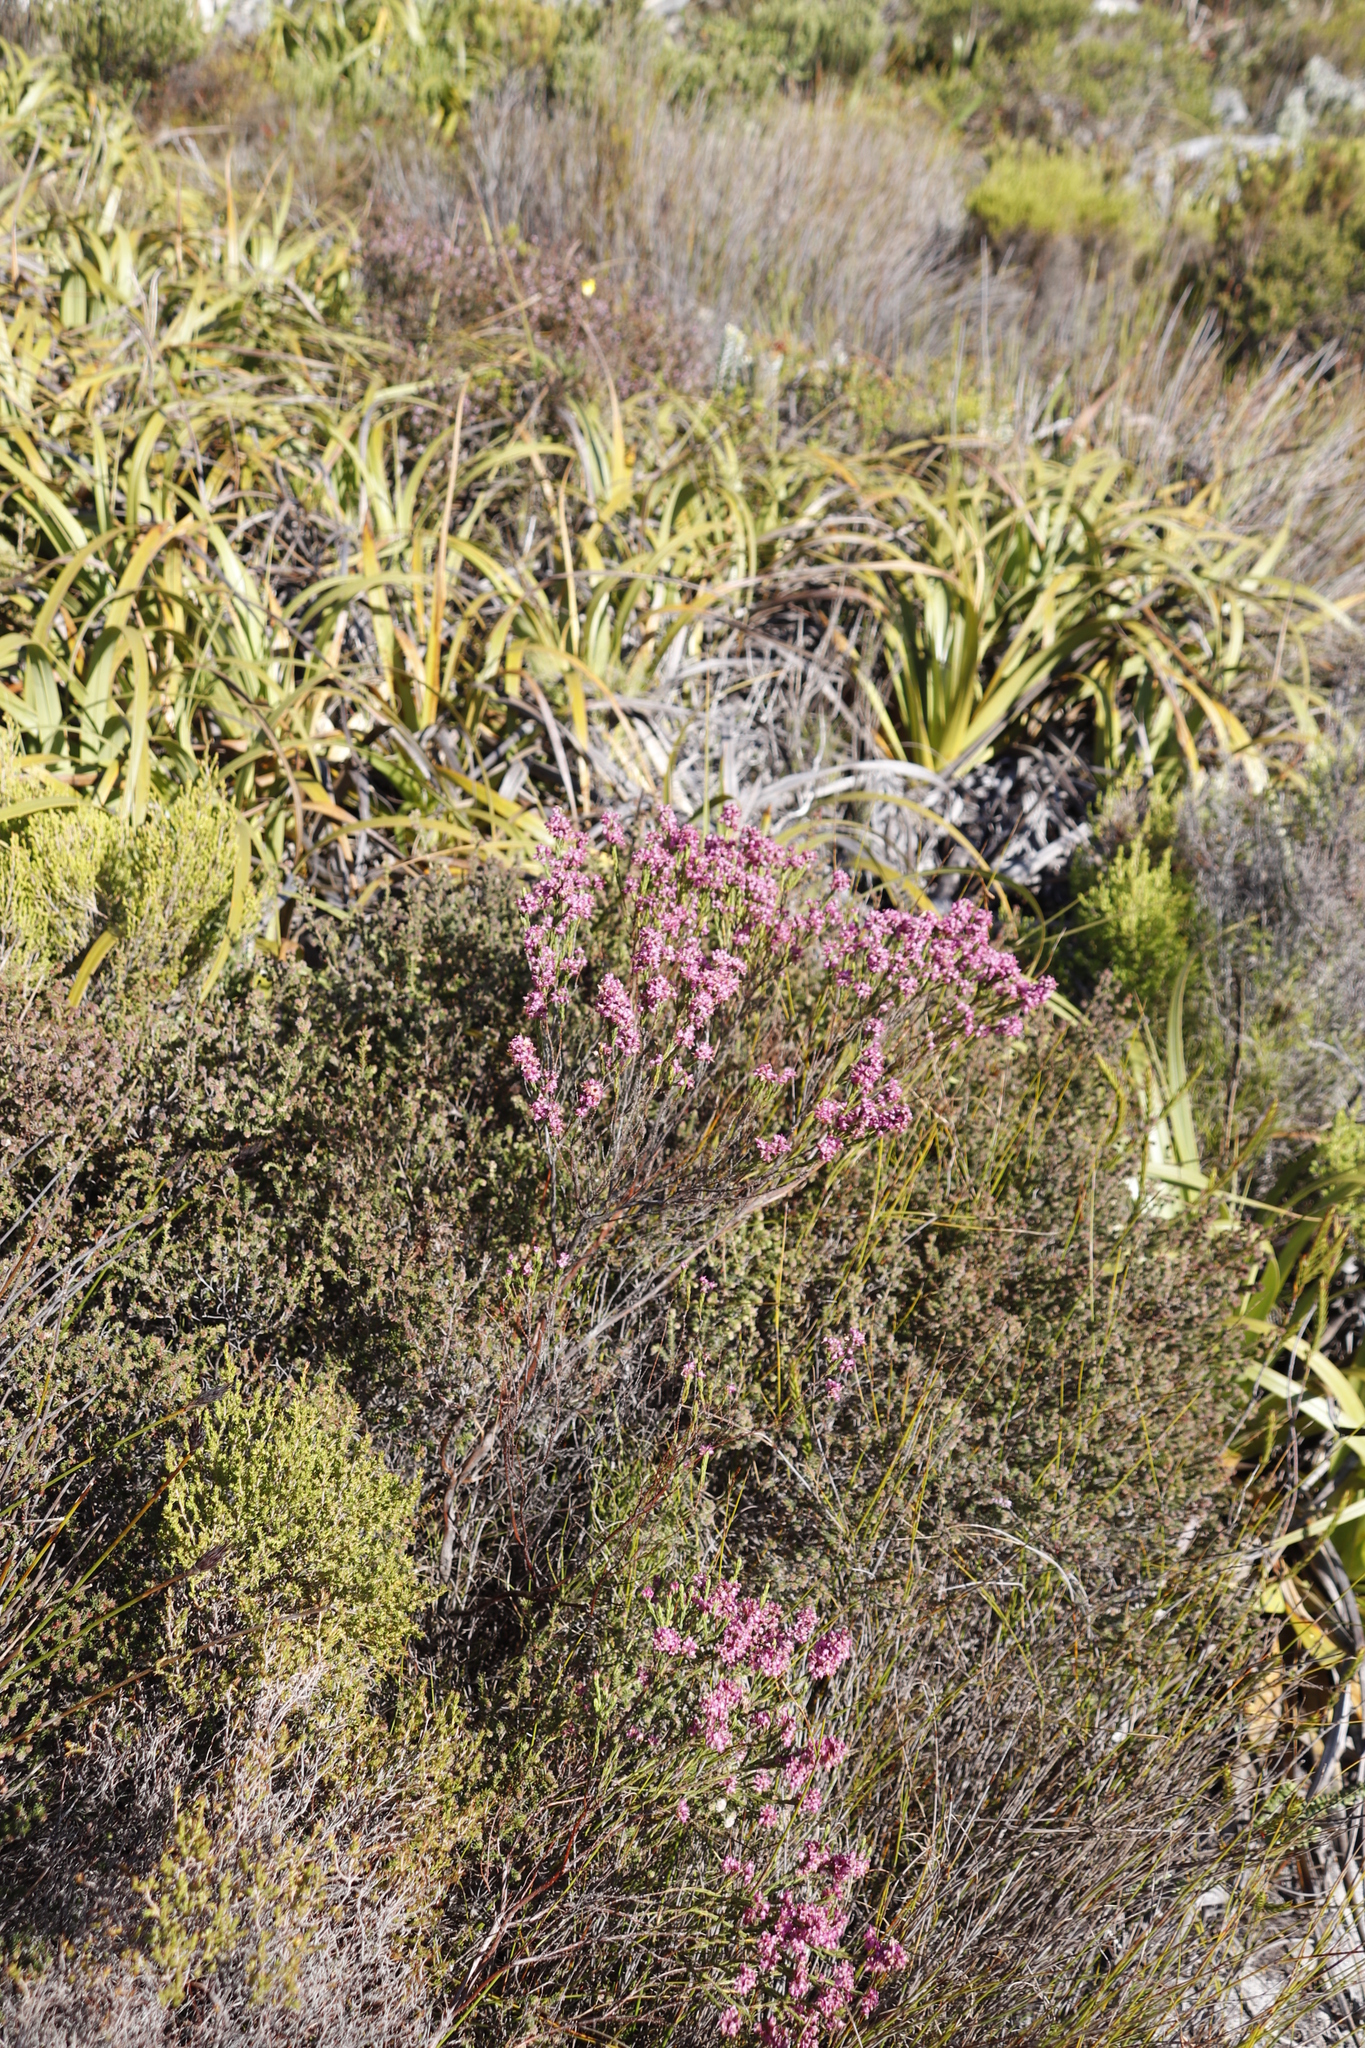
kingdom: Plantae
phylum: Tracheophyta
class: Magnoliopsida
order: Ericales
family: Ericaceae
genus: Erica
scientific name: Erica corifolia
